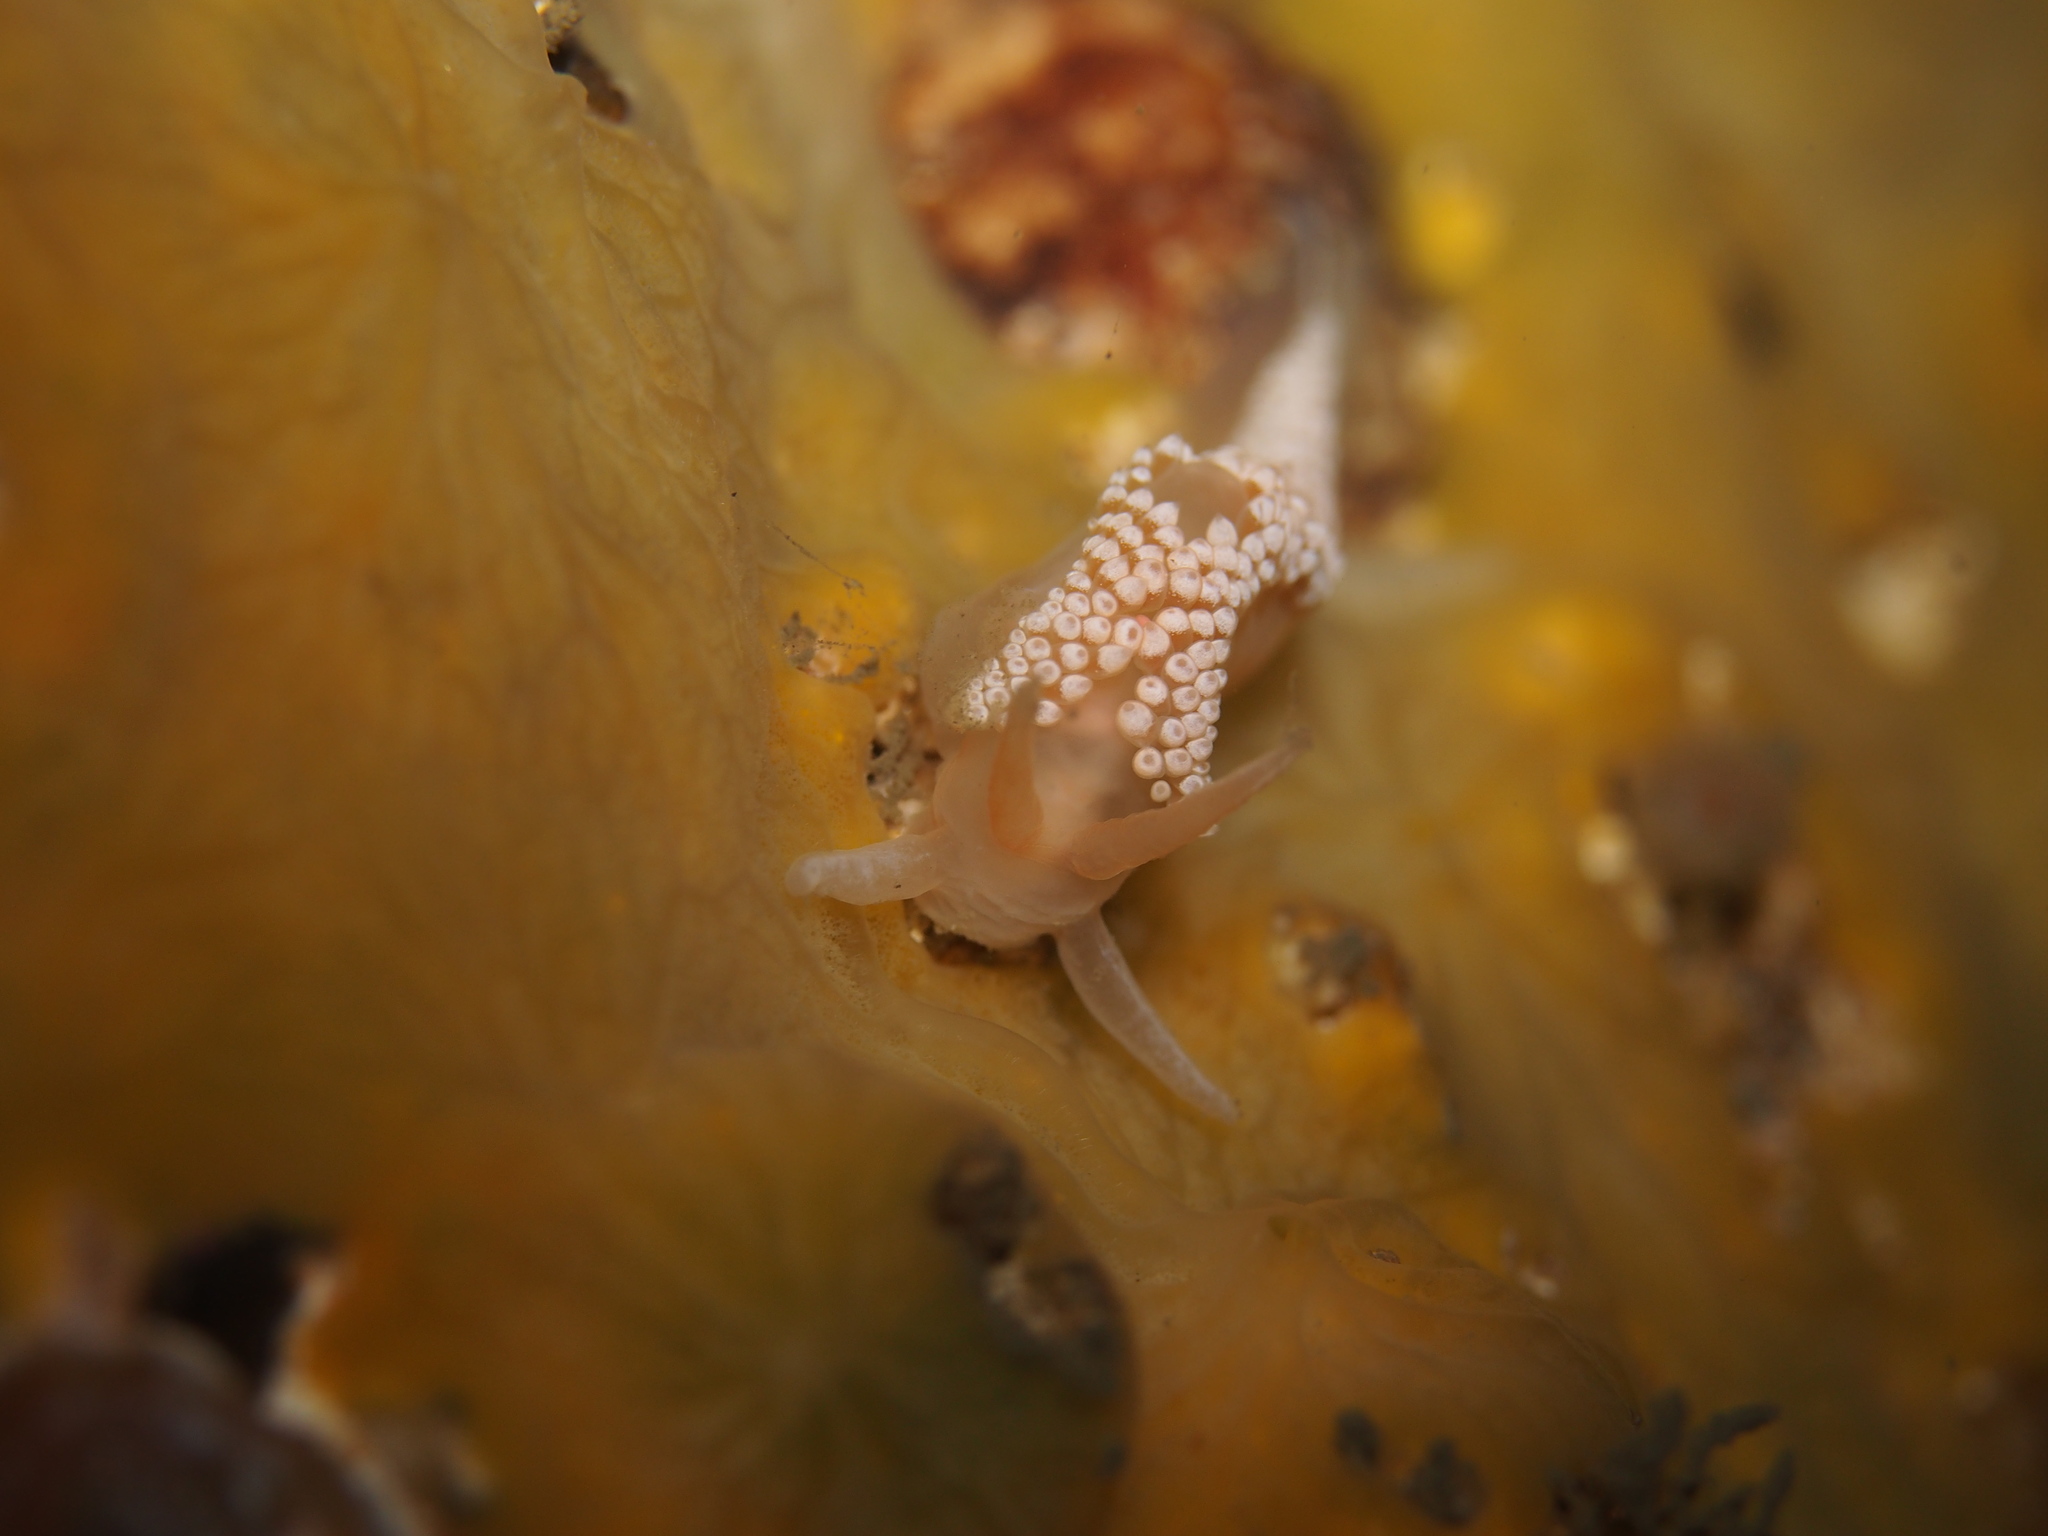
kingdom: Animalia
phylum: Mollusca
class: Gastropoda
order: Nudibranchia
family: Coryphellidae
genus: Coryphella
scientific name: Coryphella verrucosa
